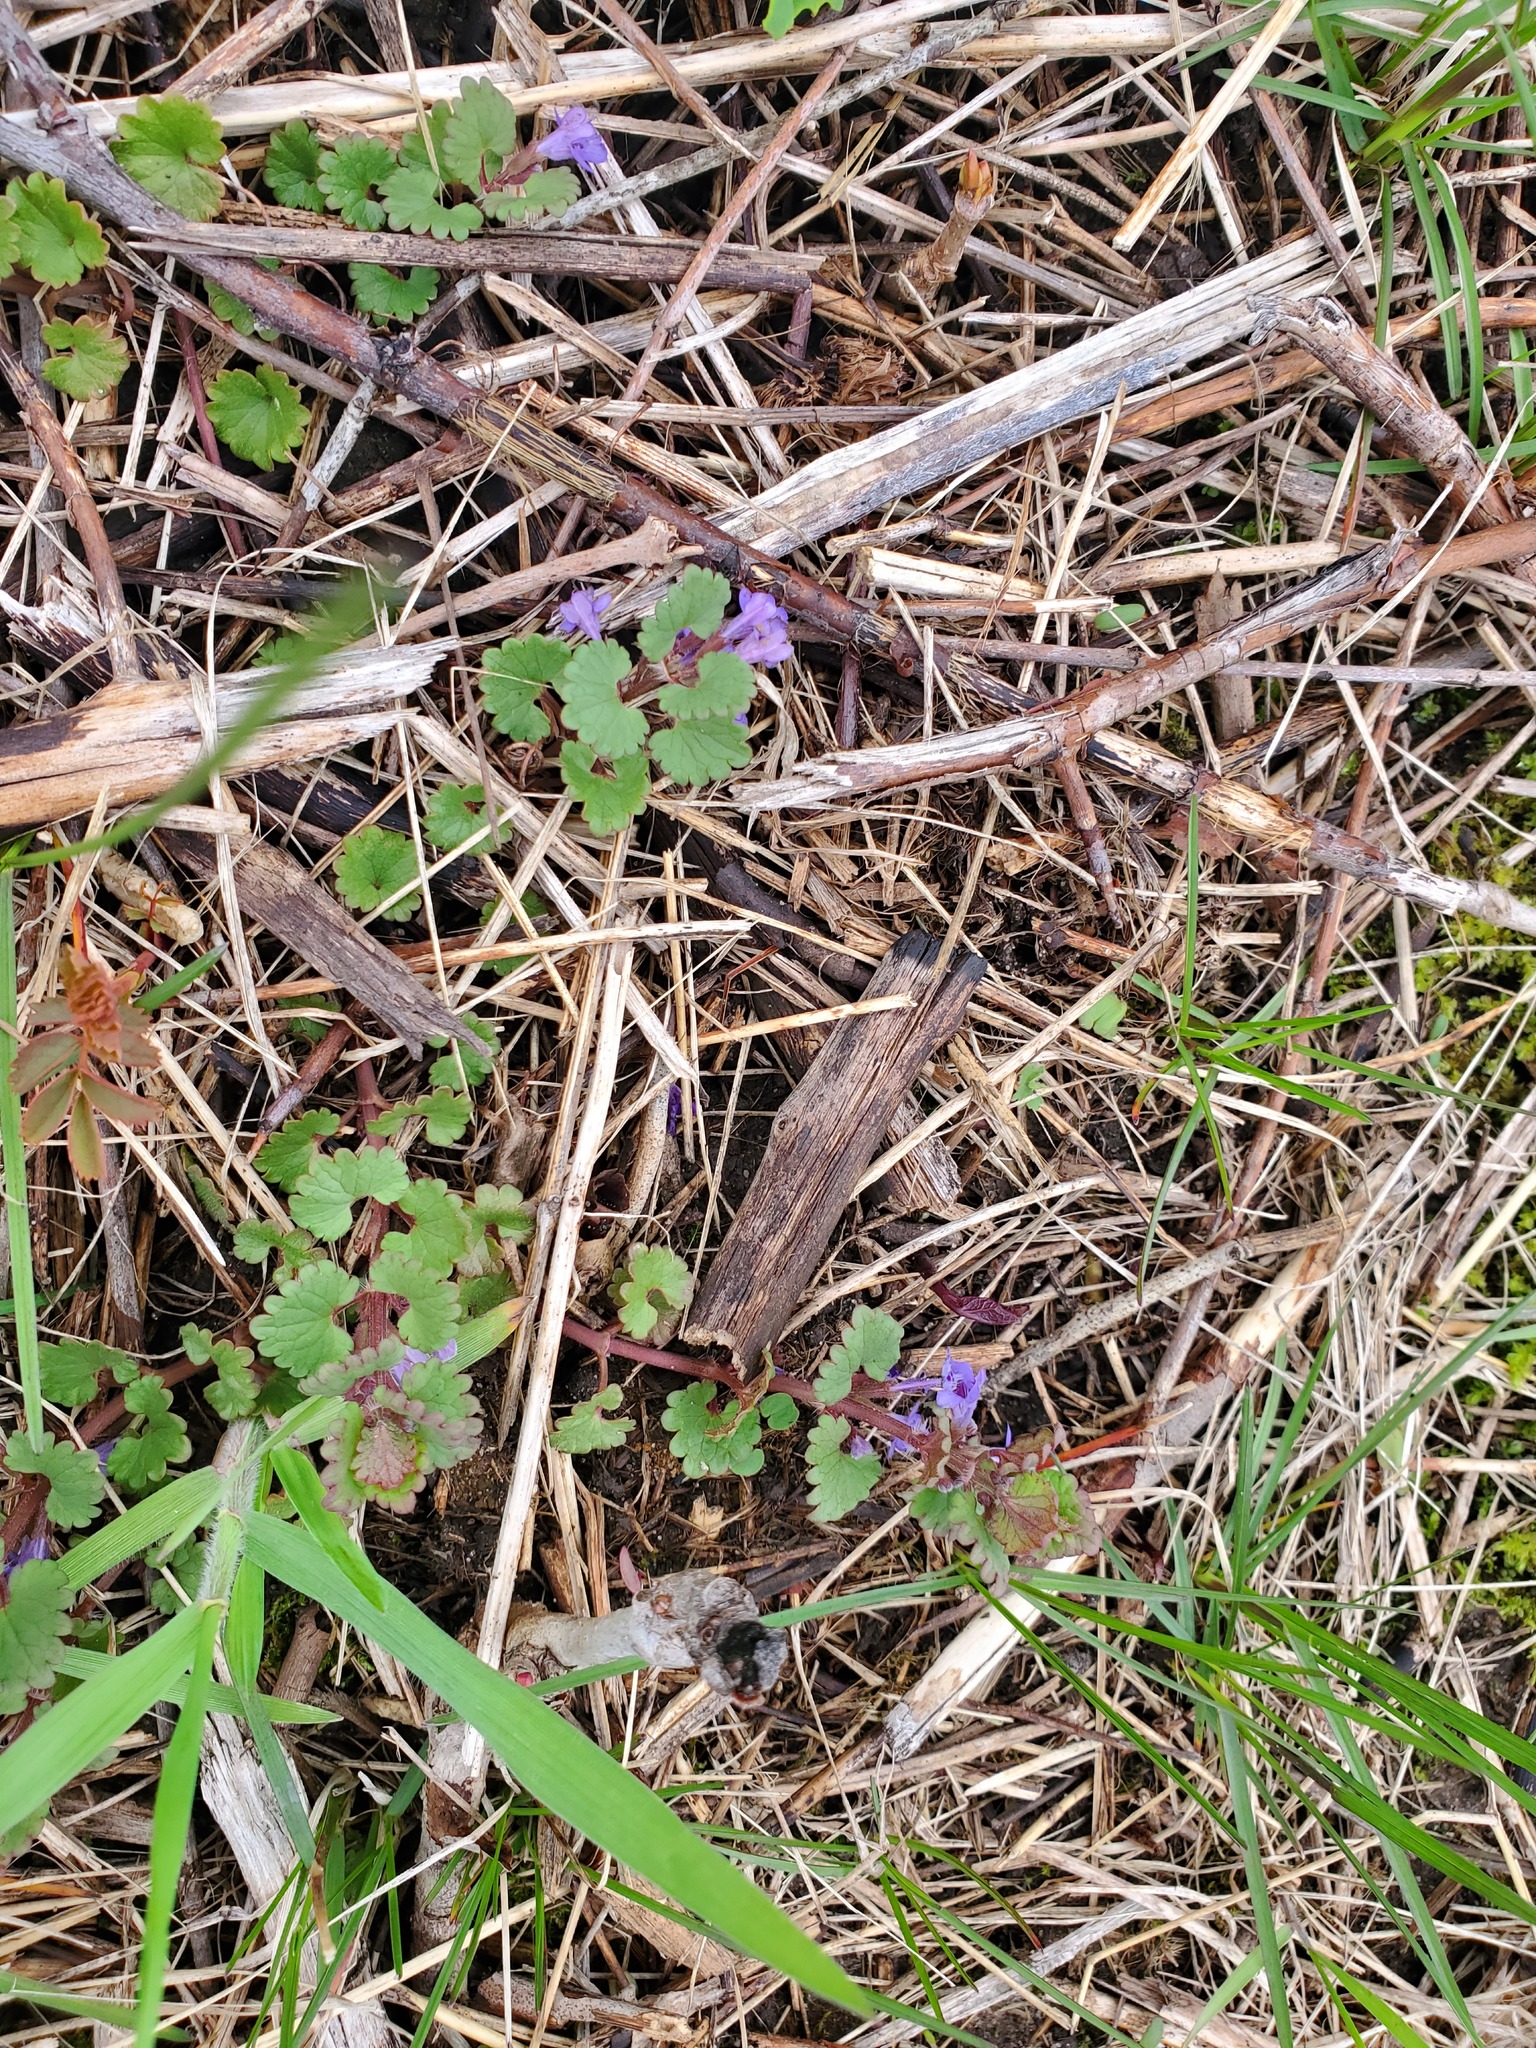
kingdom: Plantae
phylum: Tracheophyta
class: Magnoliopsida
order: Lamiales
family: Lamiaceae
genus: Glechoma
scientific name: Glechoma hederacea
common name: Ground ivy
